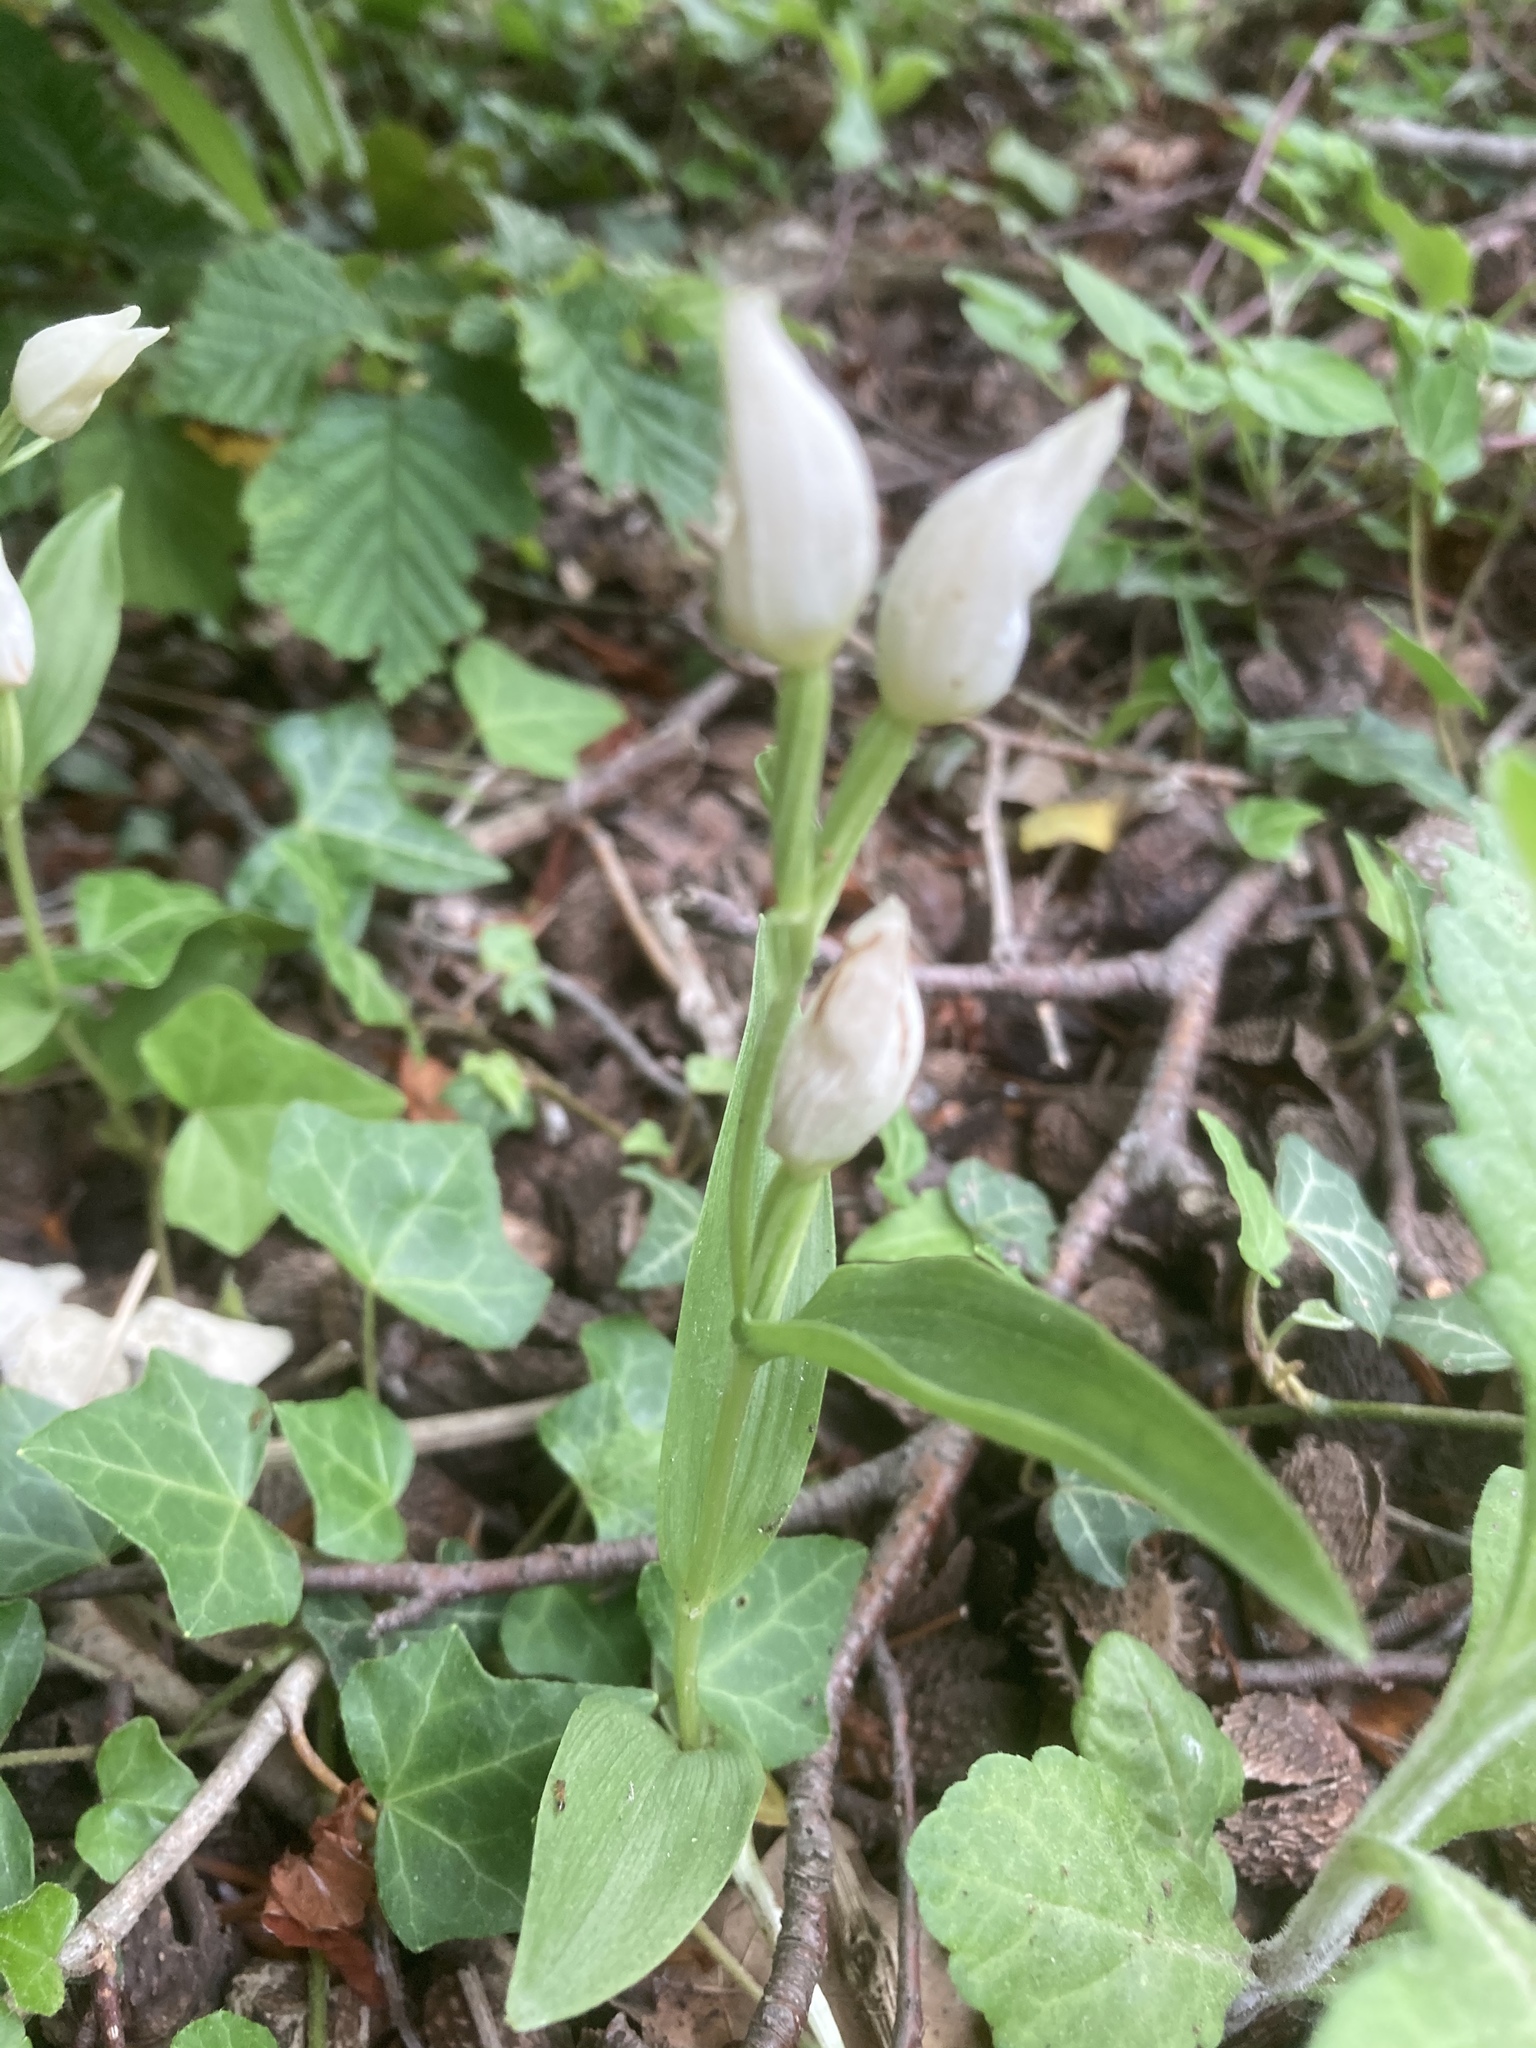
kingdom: Plantae
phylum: Tracheophyta
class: Liliopsida
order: Asparagales
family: Orchidaceae
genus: Cephalanthera
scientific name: Cephalanthera damasonium
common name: White helleborine
